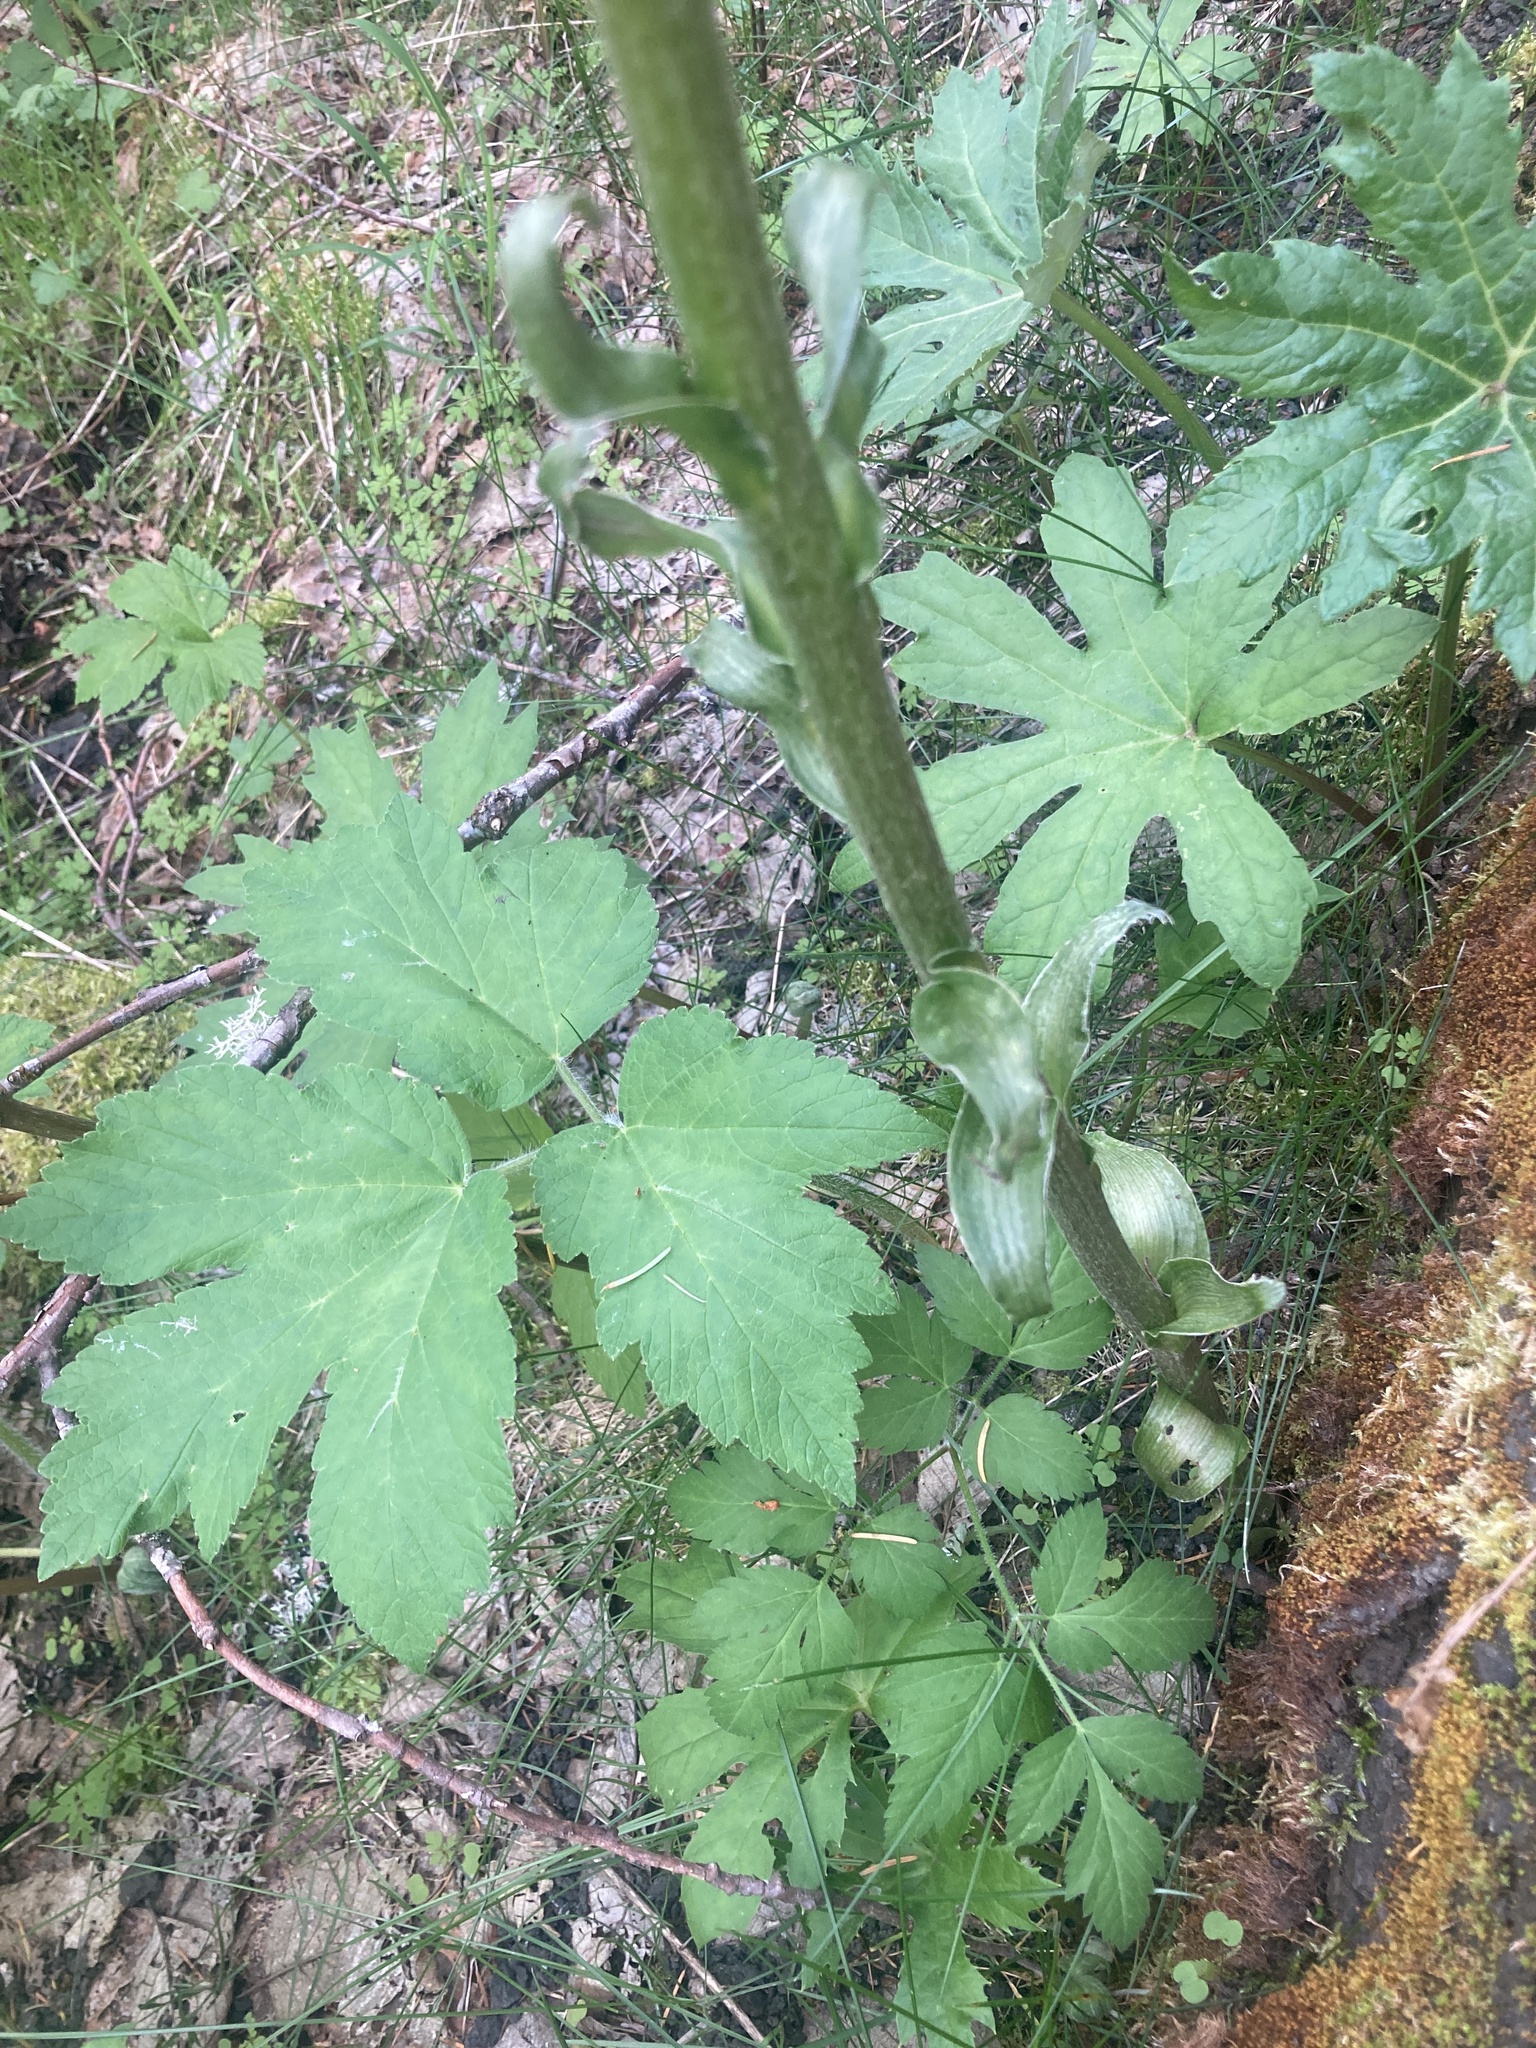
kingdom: Plantae
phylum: Tracheophyta
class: Magnoliopsida
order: Asterales
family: Asteraceae
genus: Petasites
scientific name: Petasites frigidus
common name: Arctic butterbur
